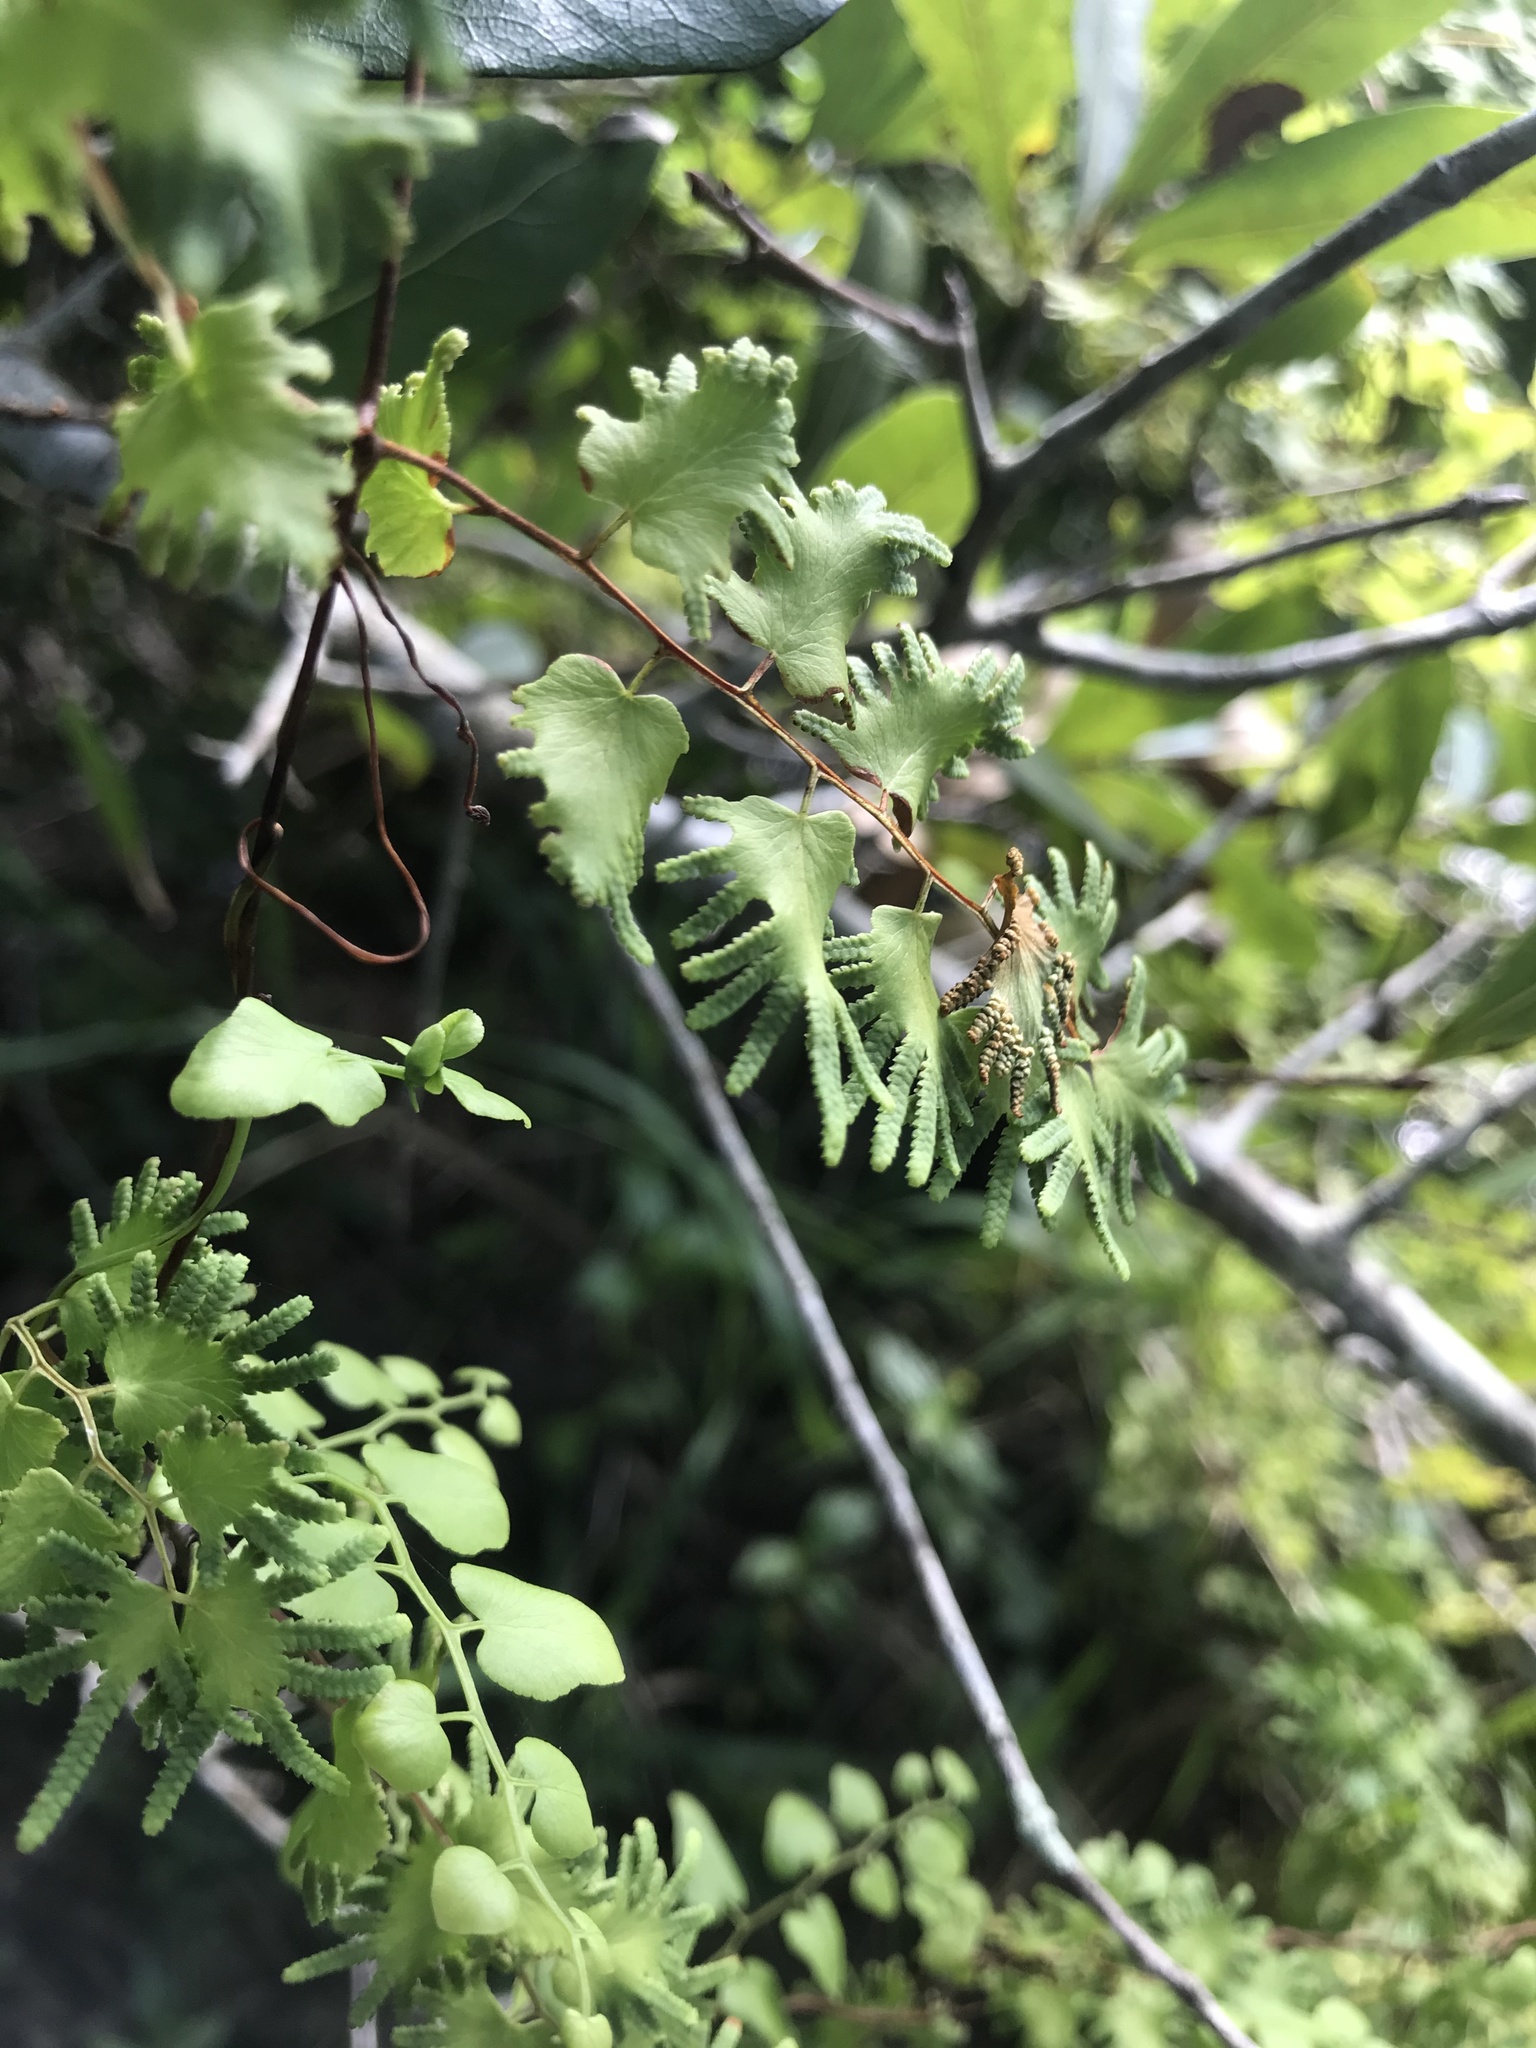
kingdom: Plantae
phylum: Tracheophyta
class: Polypodiopsida
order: Schizaeales
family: Lygodiaceae
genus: Lygodium
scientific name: Lygodium microphyllum
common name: Small-leaf climbing fern
